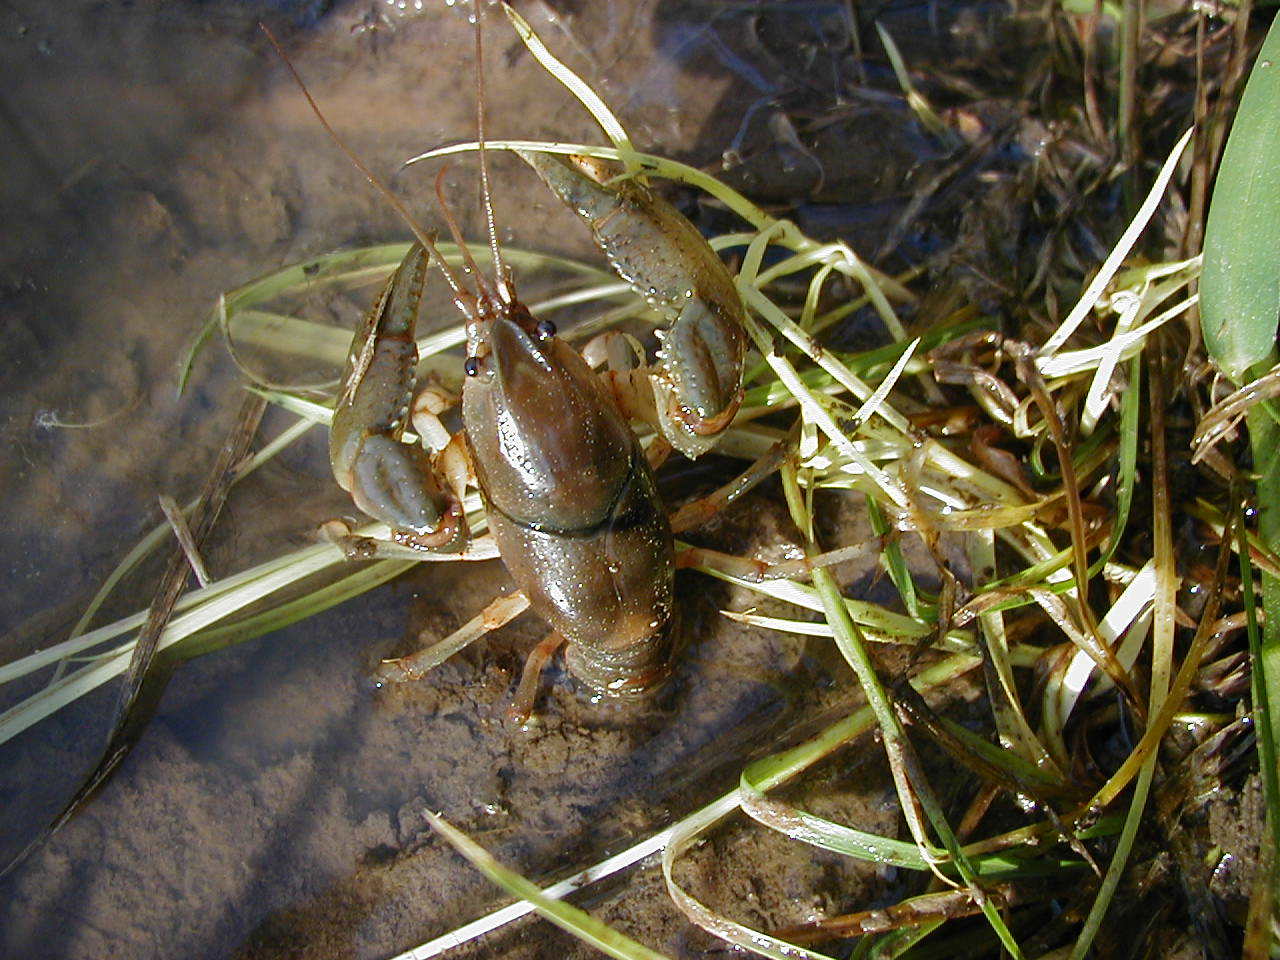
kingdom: Animalia
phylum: Arthropoda
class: Malacostraca
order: Decapoda
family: Cambaridae
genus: Fallicambarus
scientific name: Fallicambarus houstonensis
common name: Houston burrowing crayfish
